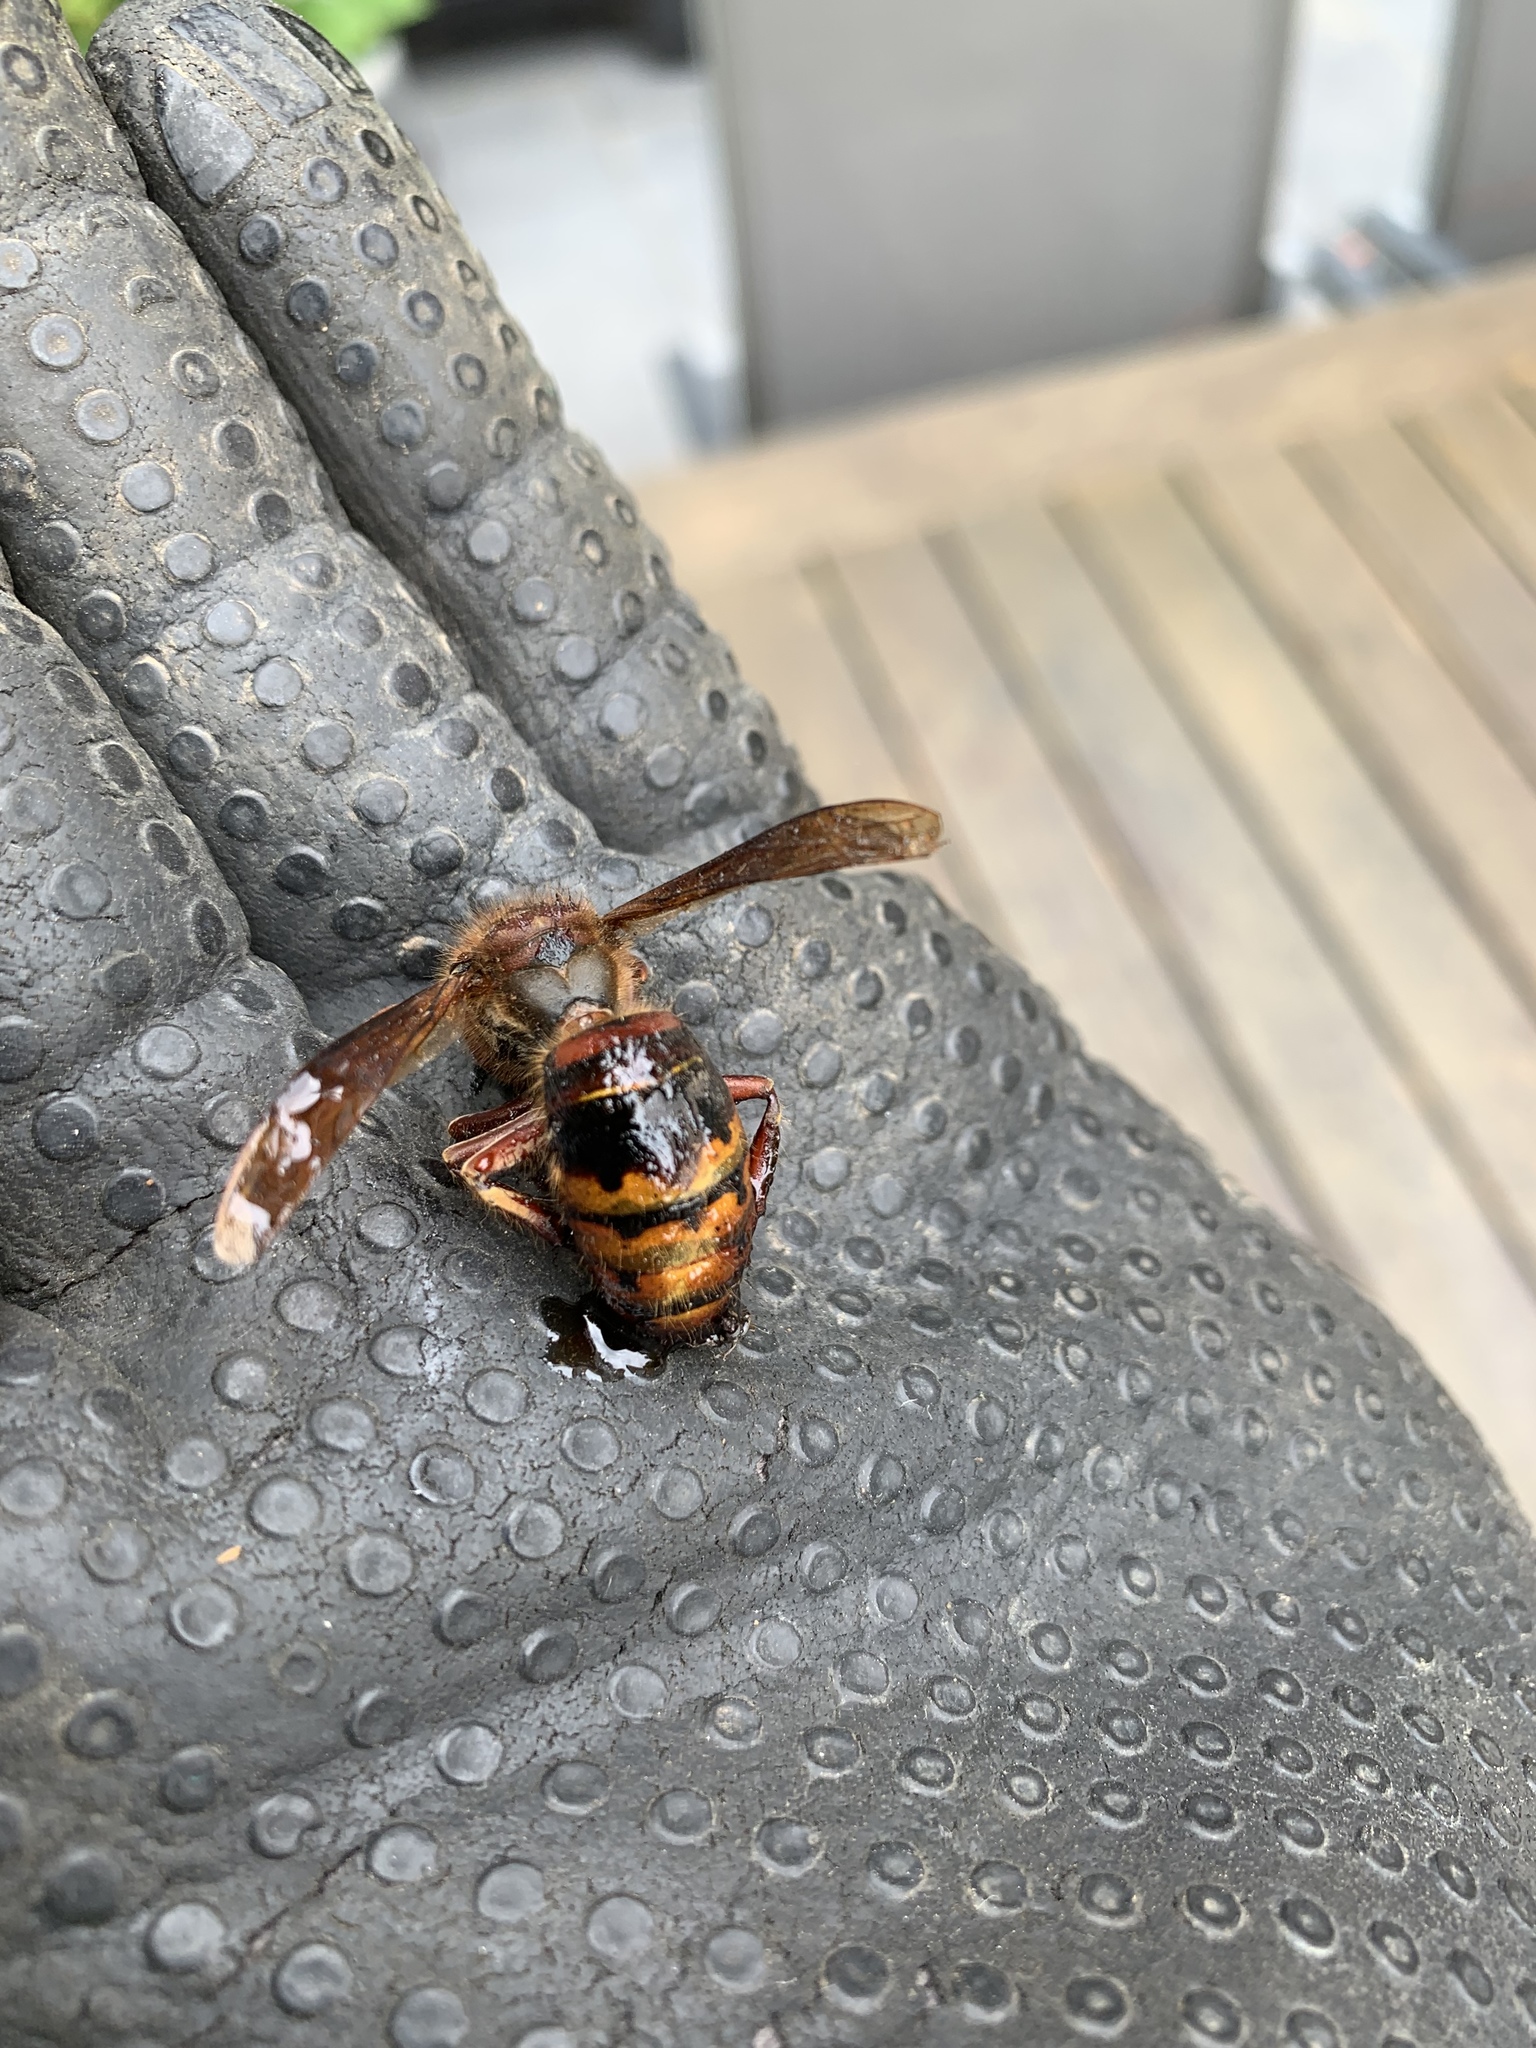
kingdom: Animalia
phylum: Arthropoda
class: Insecta
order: Hymenoptera
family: Vespidae
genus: Vespa
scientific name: Vespa crabro
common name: Hornet
